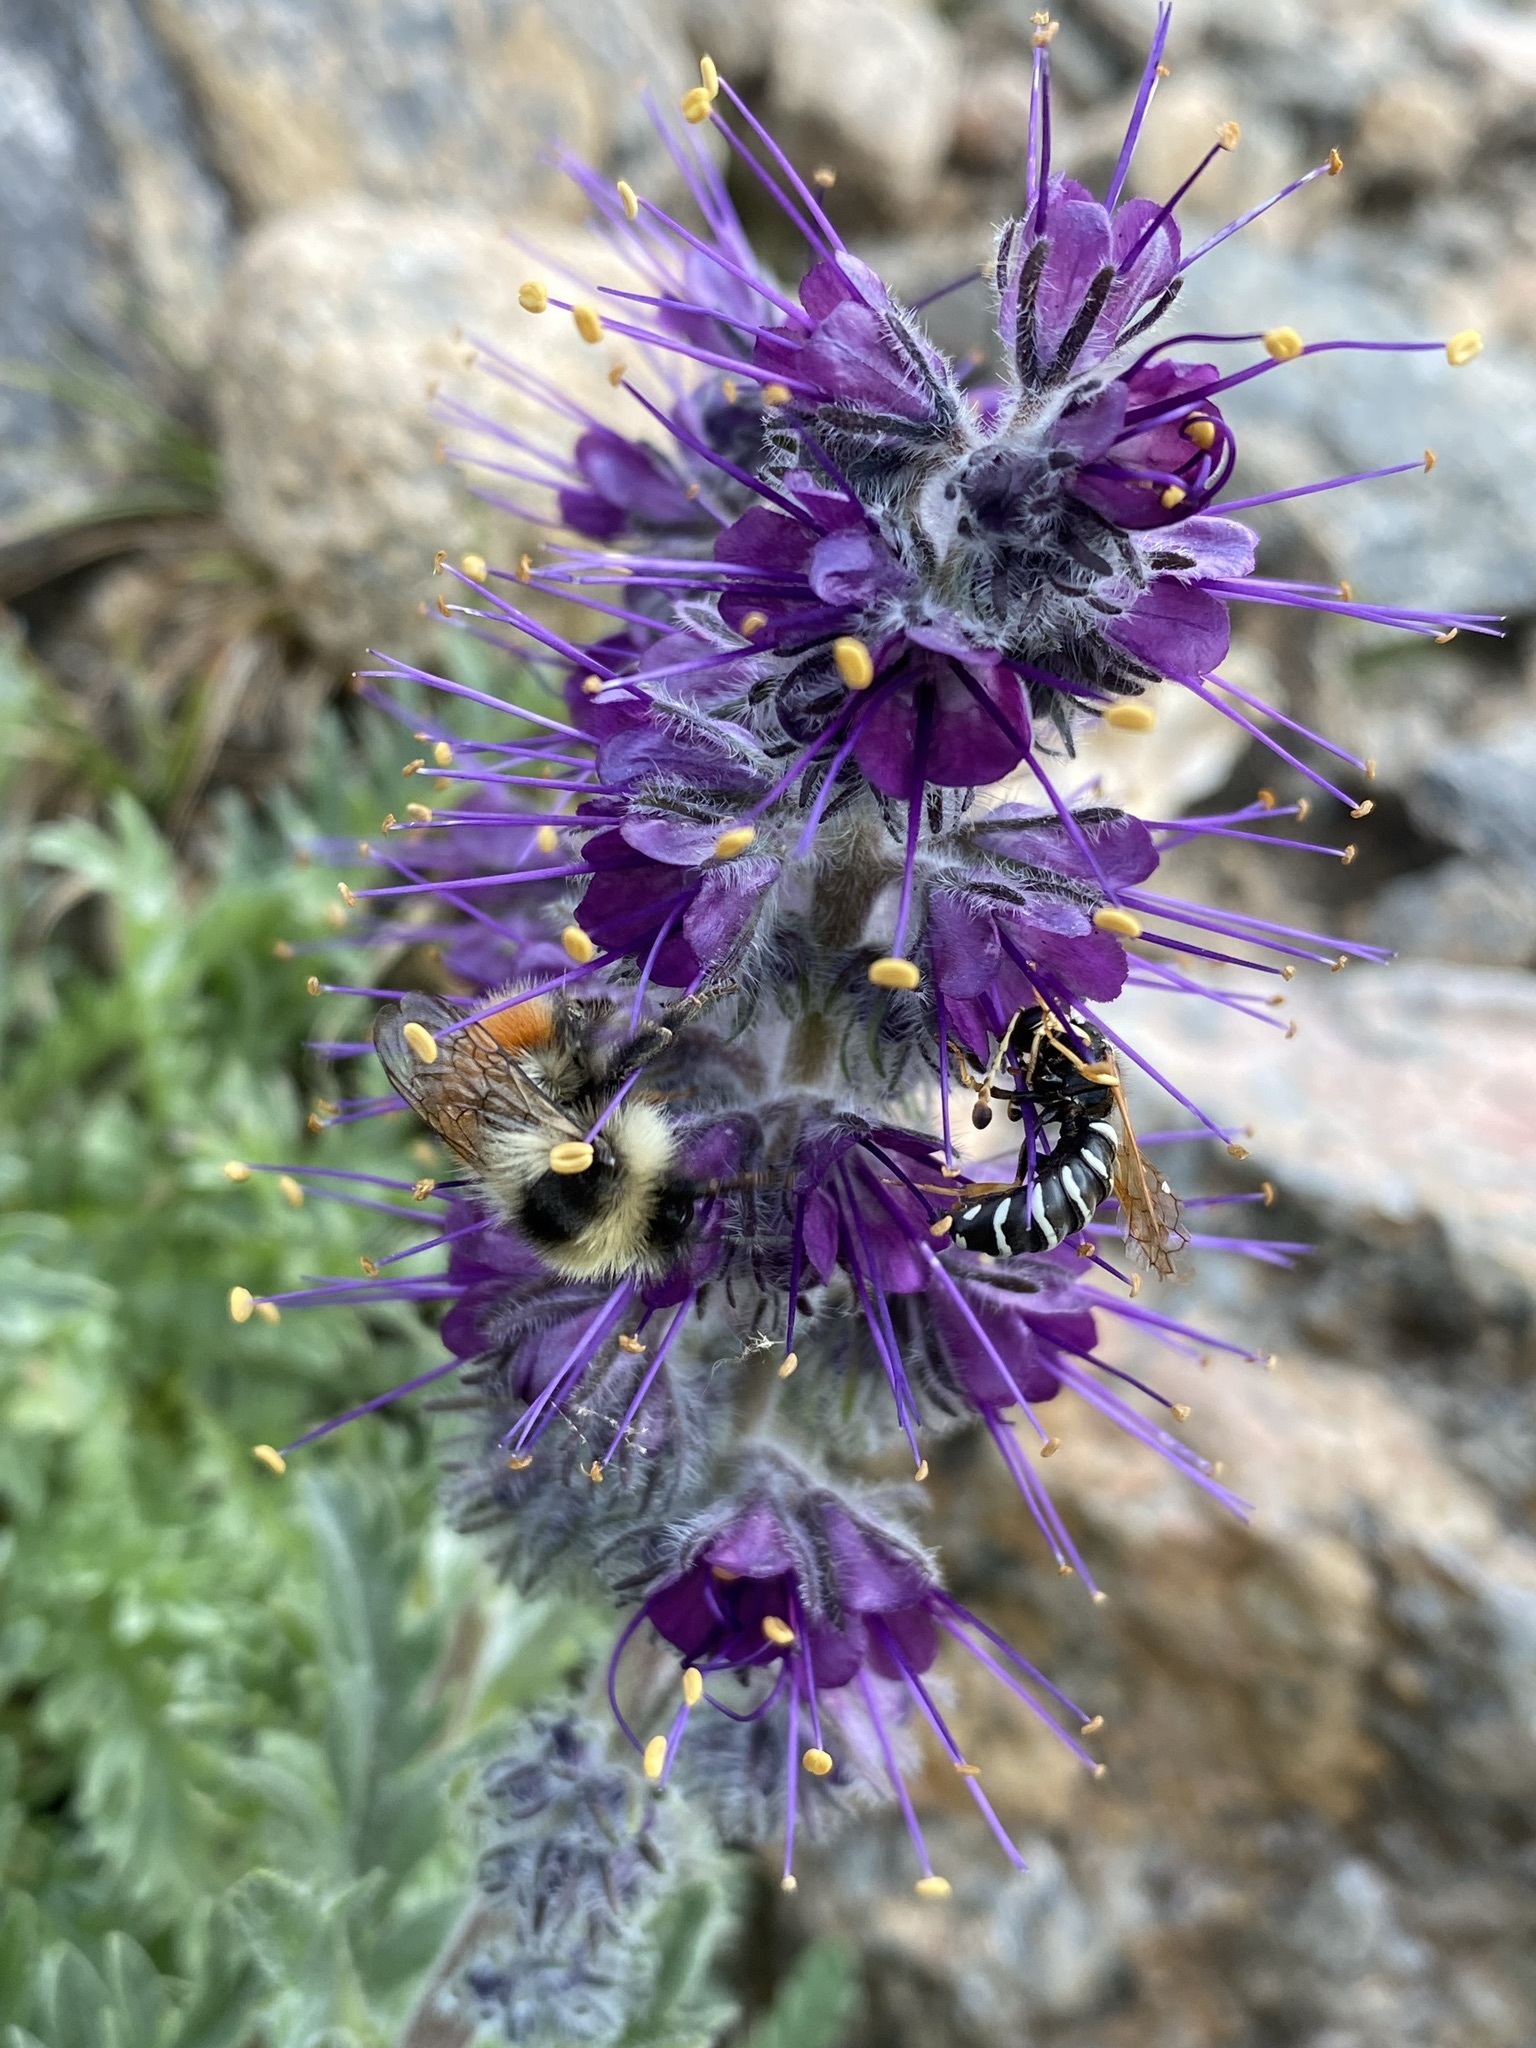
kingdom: Animalia
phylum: Arthropoda
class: Insecta
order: Hymenoptera
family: Apidae
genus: Bombus
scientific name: Bombus sylvicola
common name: Forest bumble bee
